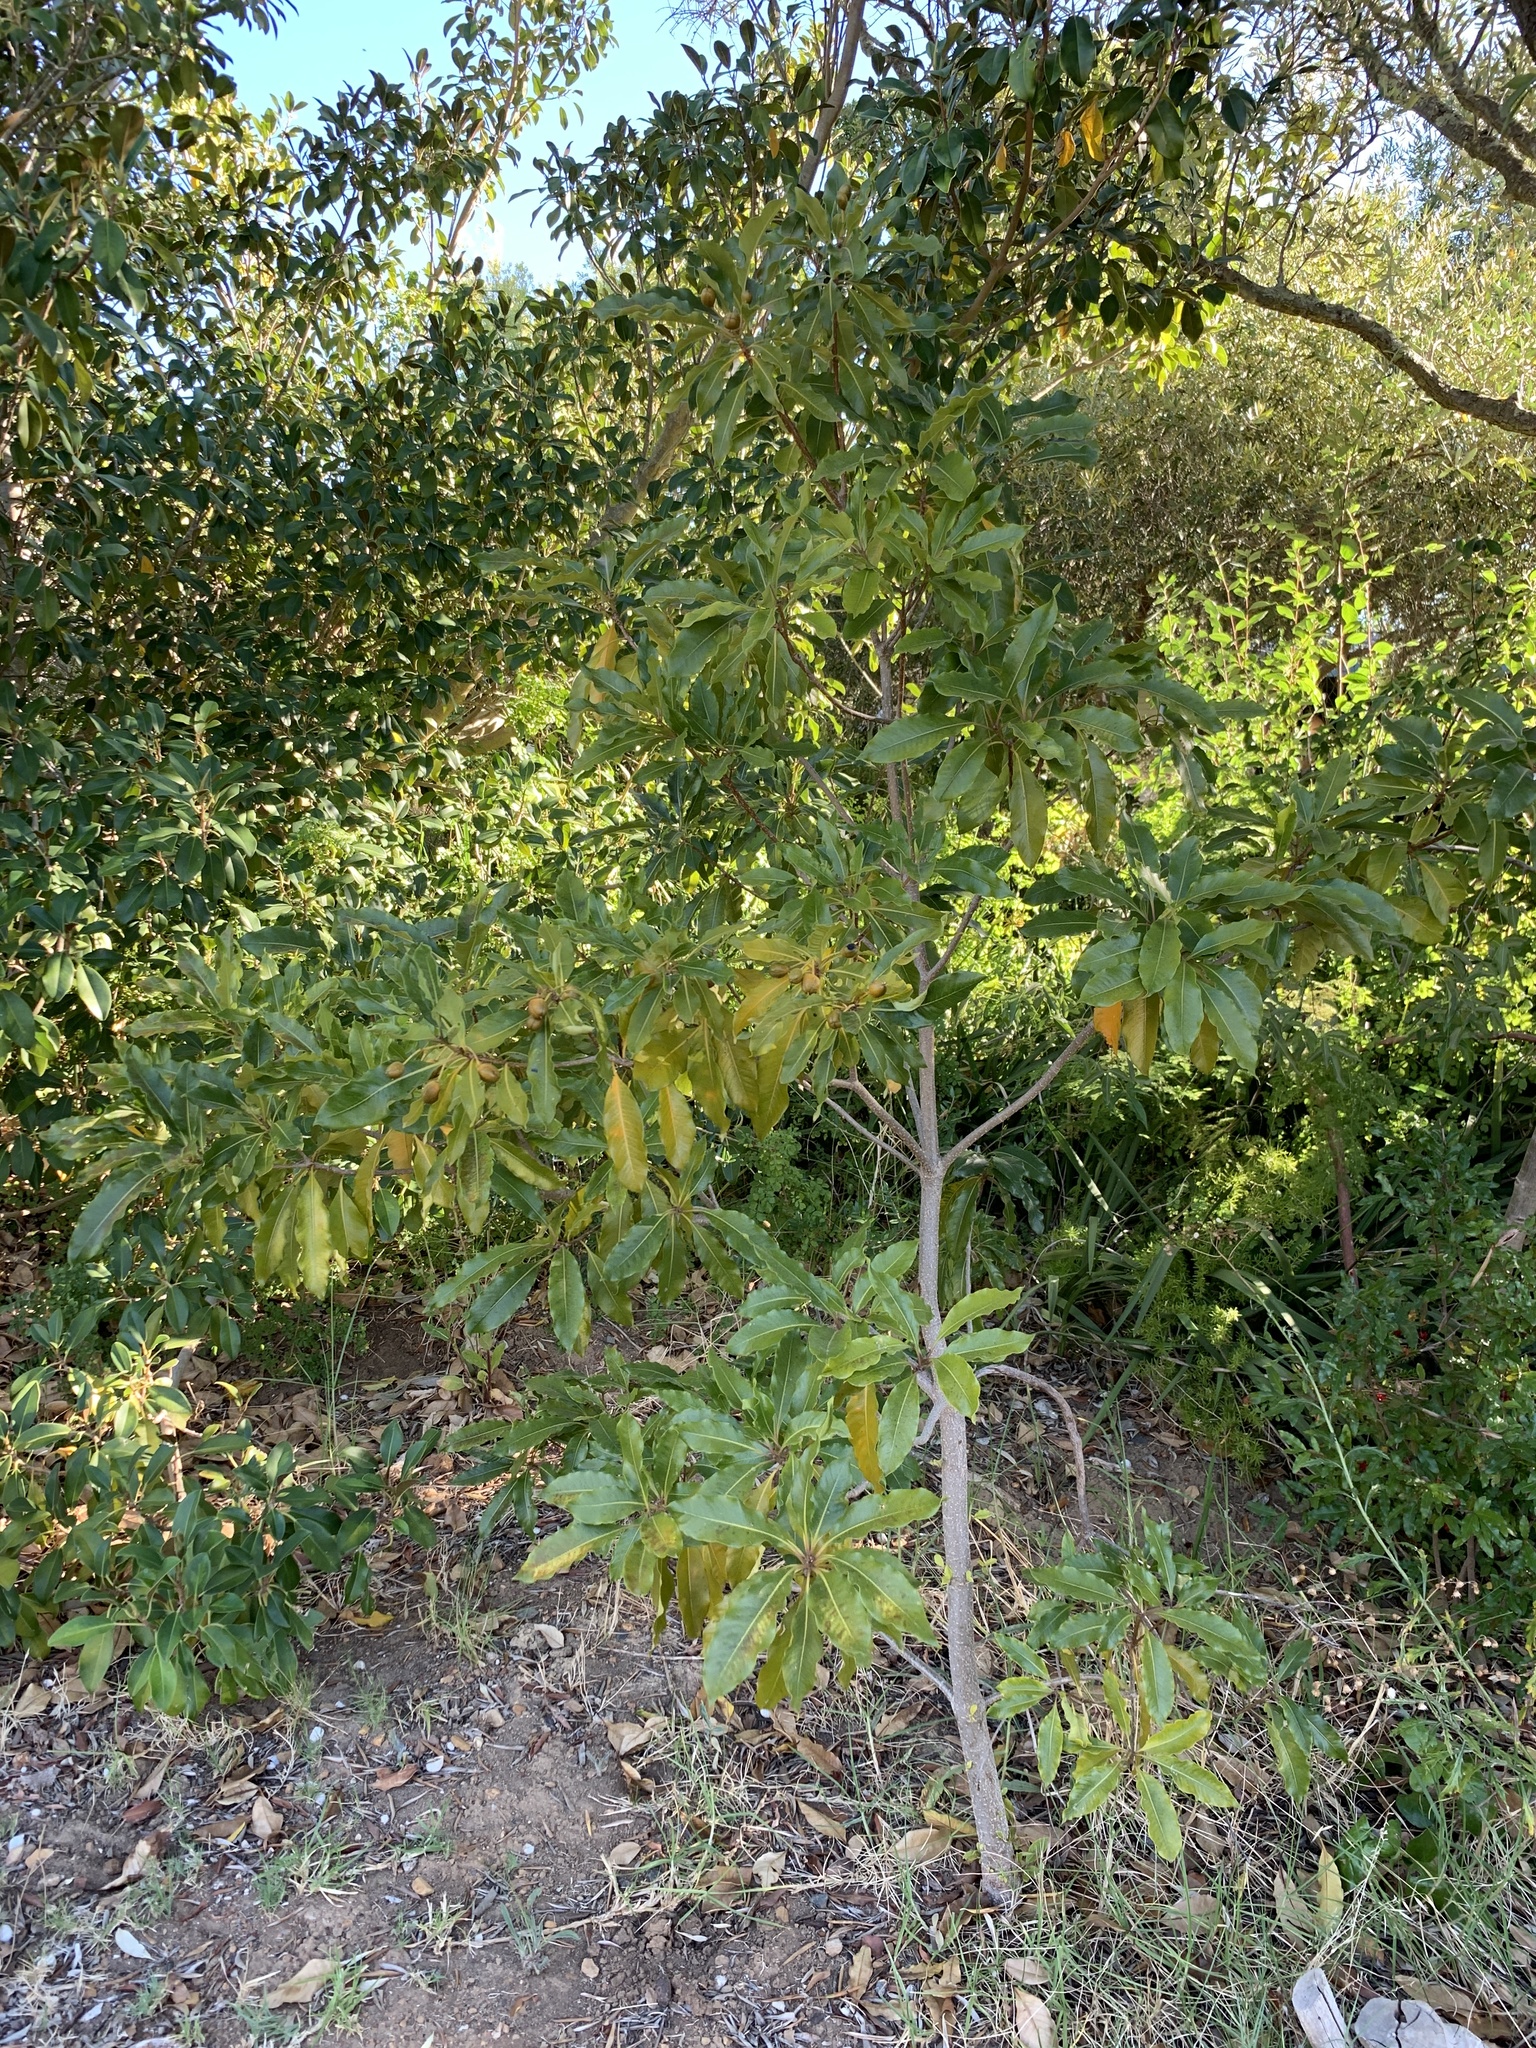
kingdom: Plantae
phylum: Tracheophyta
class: Magnoliopsida
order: Apiales
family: Pittosporaceae
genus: Pittosporum
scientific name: Pittosporum undulatum
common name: Australian cheesewood
